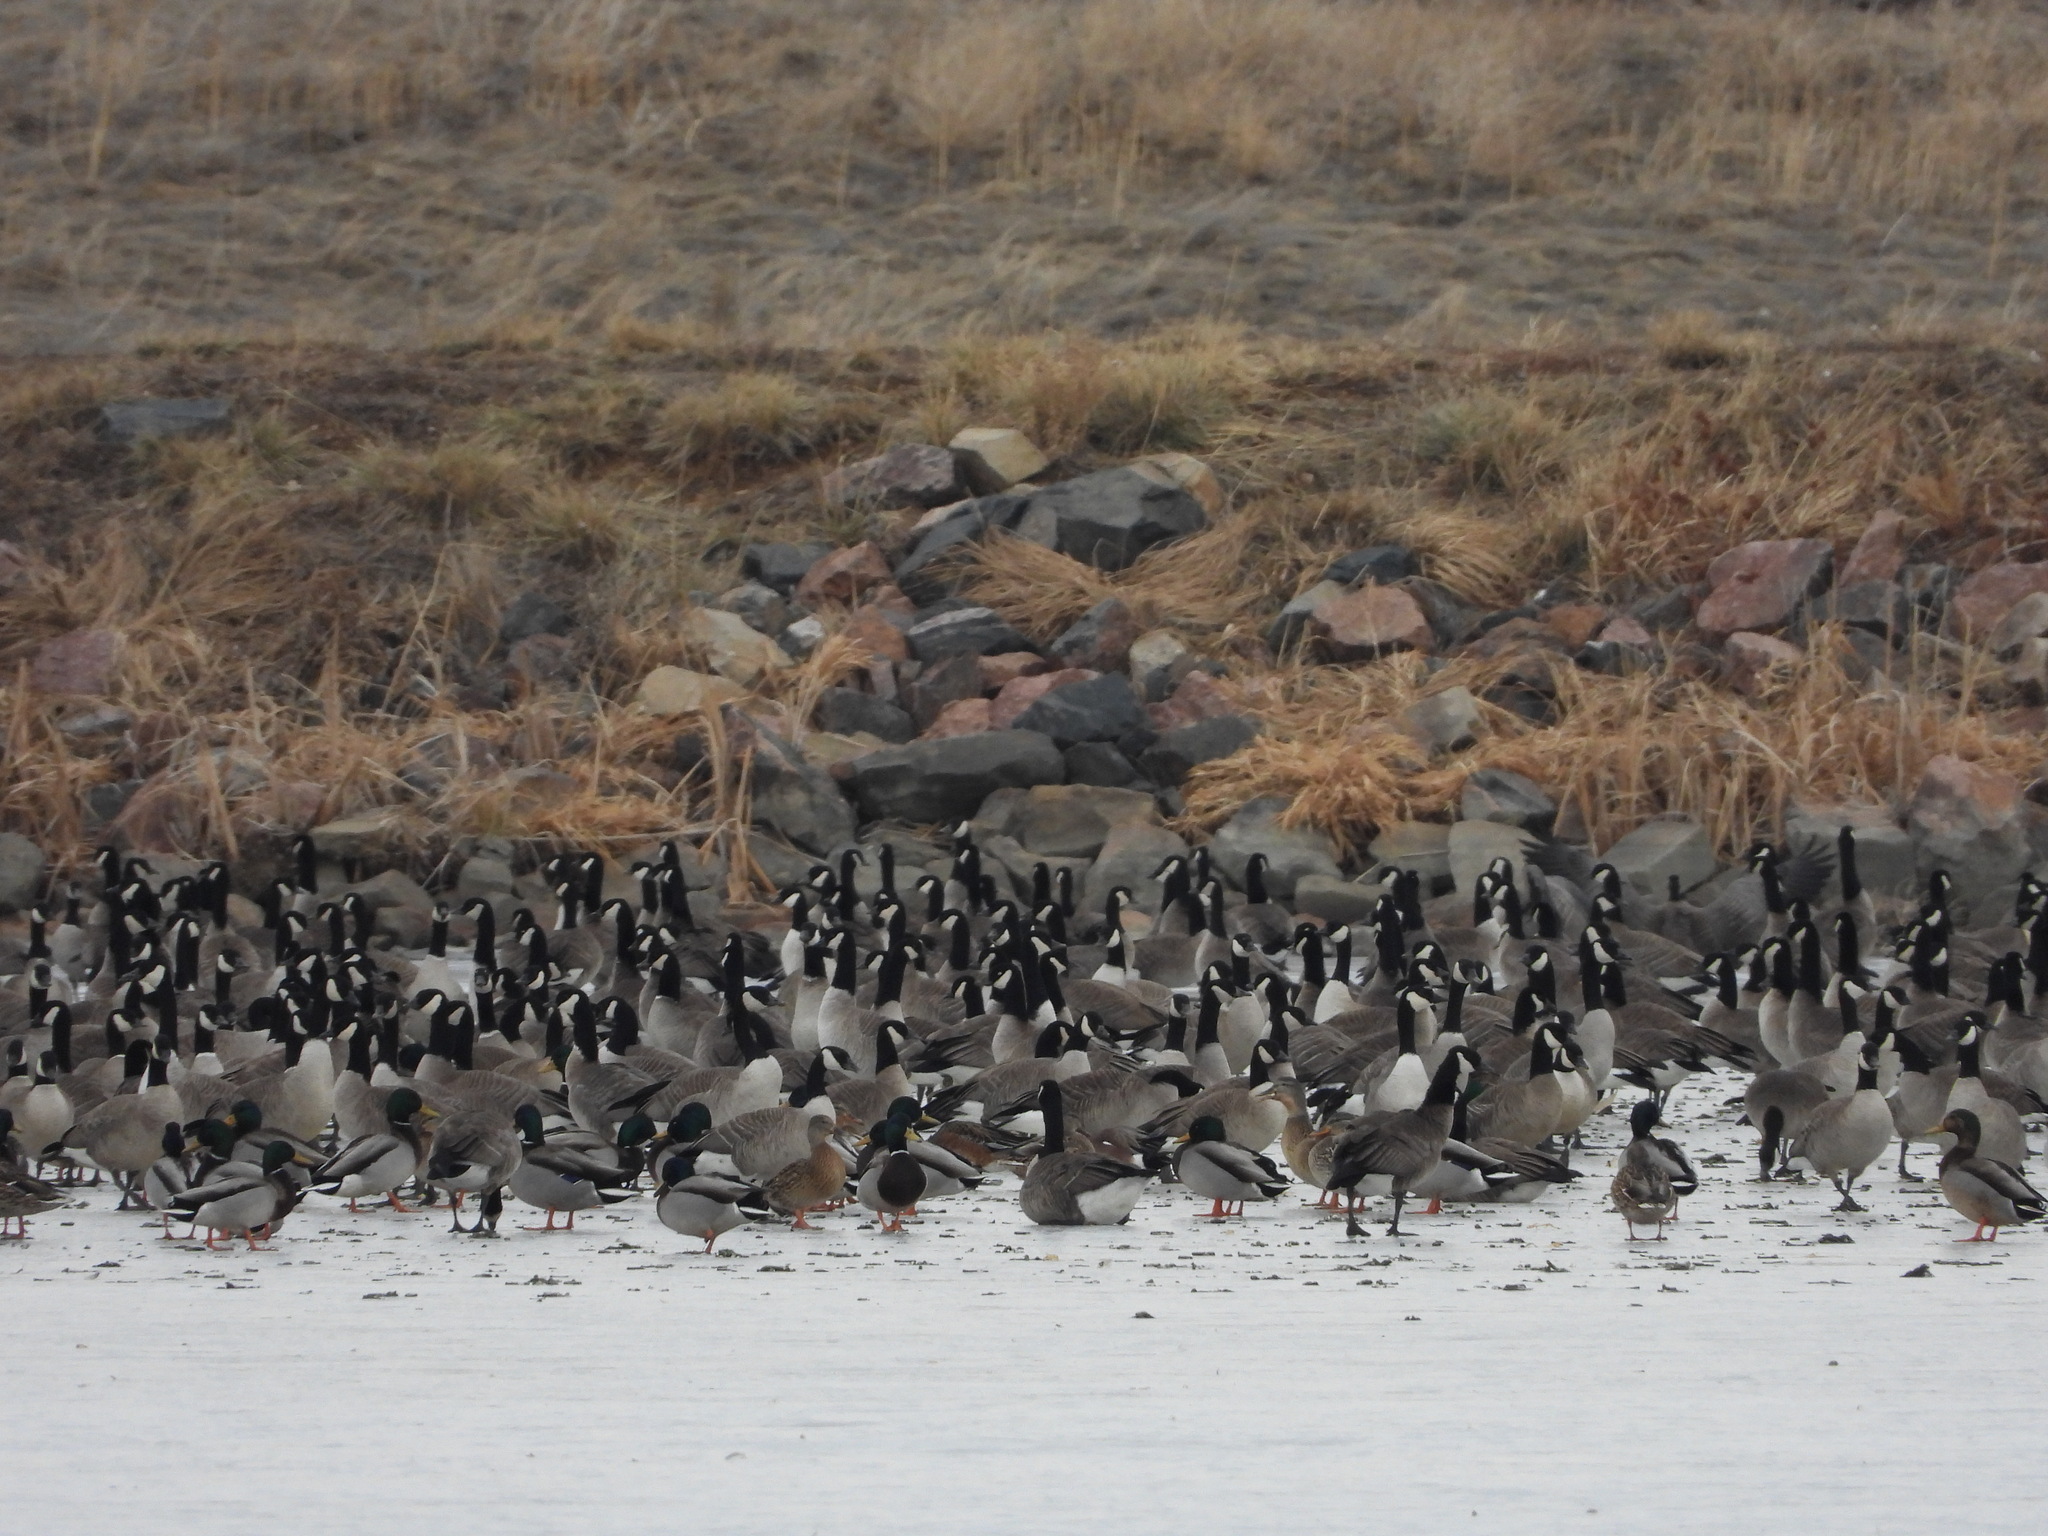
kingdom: Animalia
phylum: Chordata
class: Aves
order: Anseriformes
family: Anatidae
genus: Branta
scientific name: Branta hutchinsii
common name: Cackling goose
